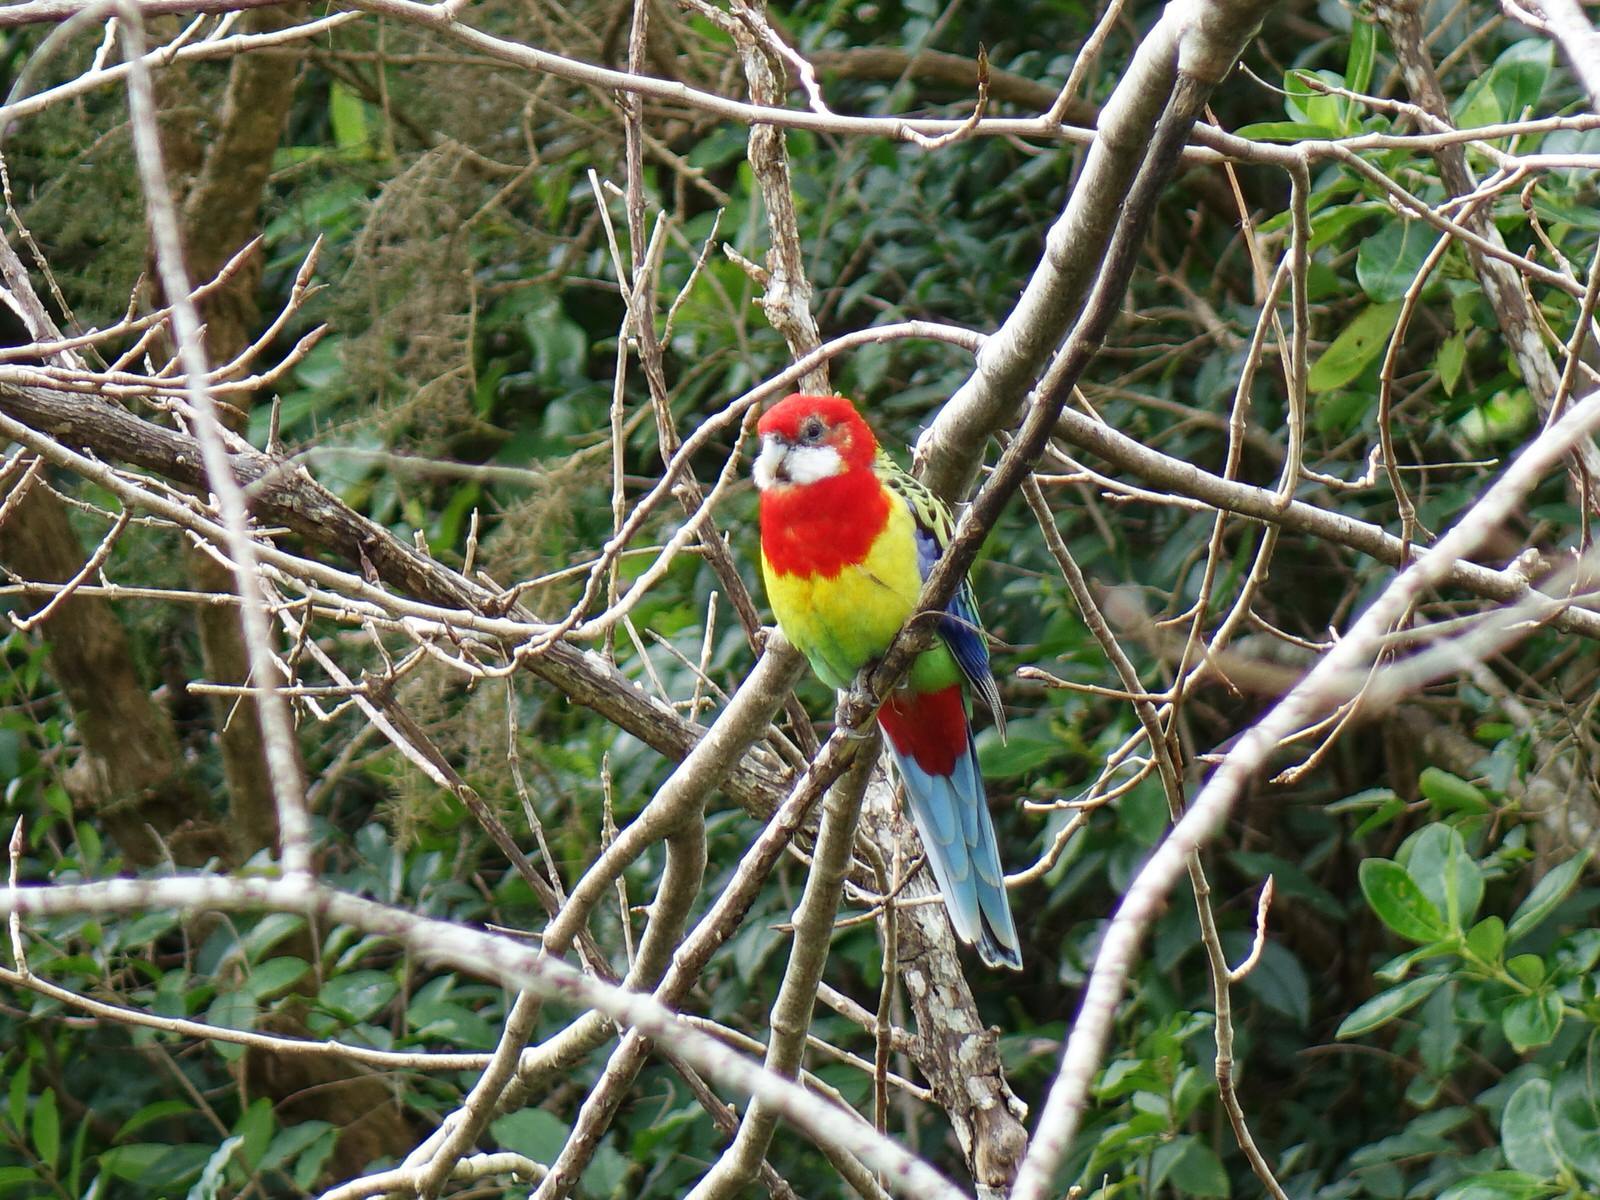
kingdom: Animalia
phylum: Chordata
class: Aves
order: Psittaciformes
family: Psittacidae
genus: Platycercus
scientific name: Platycercus eximius
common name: Eastern rosella
